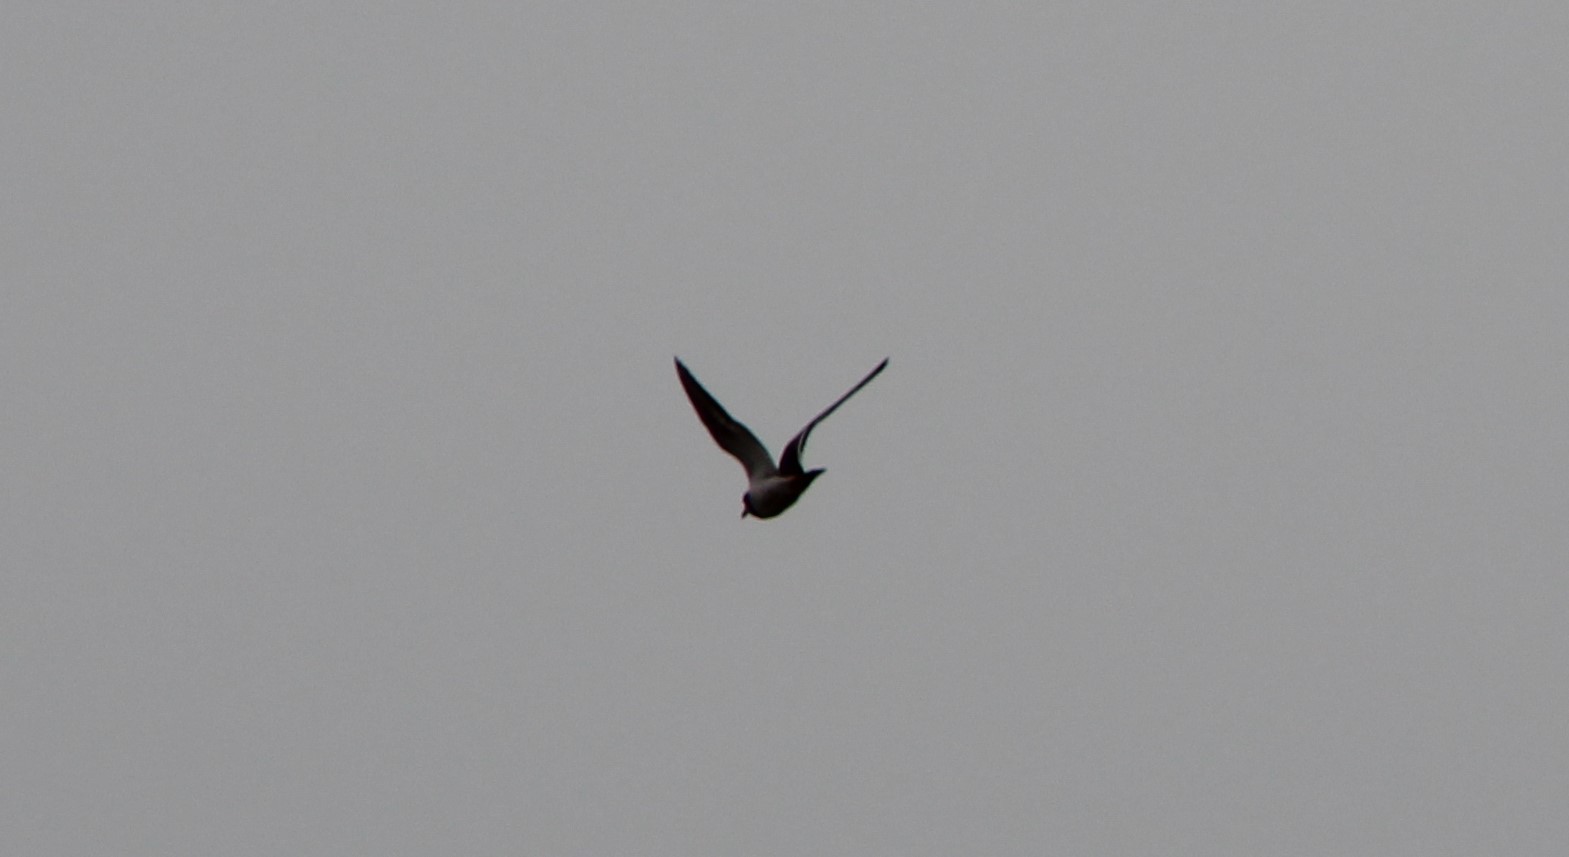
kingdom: Animalia
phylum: Chordata
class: Aves
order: Charadriiformes
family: Charadriidae
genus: Charadrius
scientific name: Charadrius vociferus
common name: Killdeer
